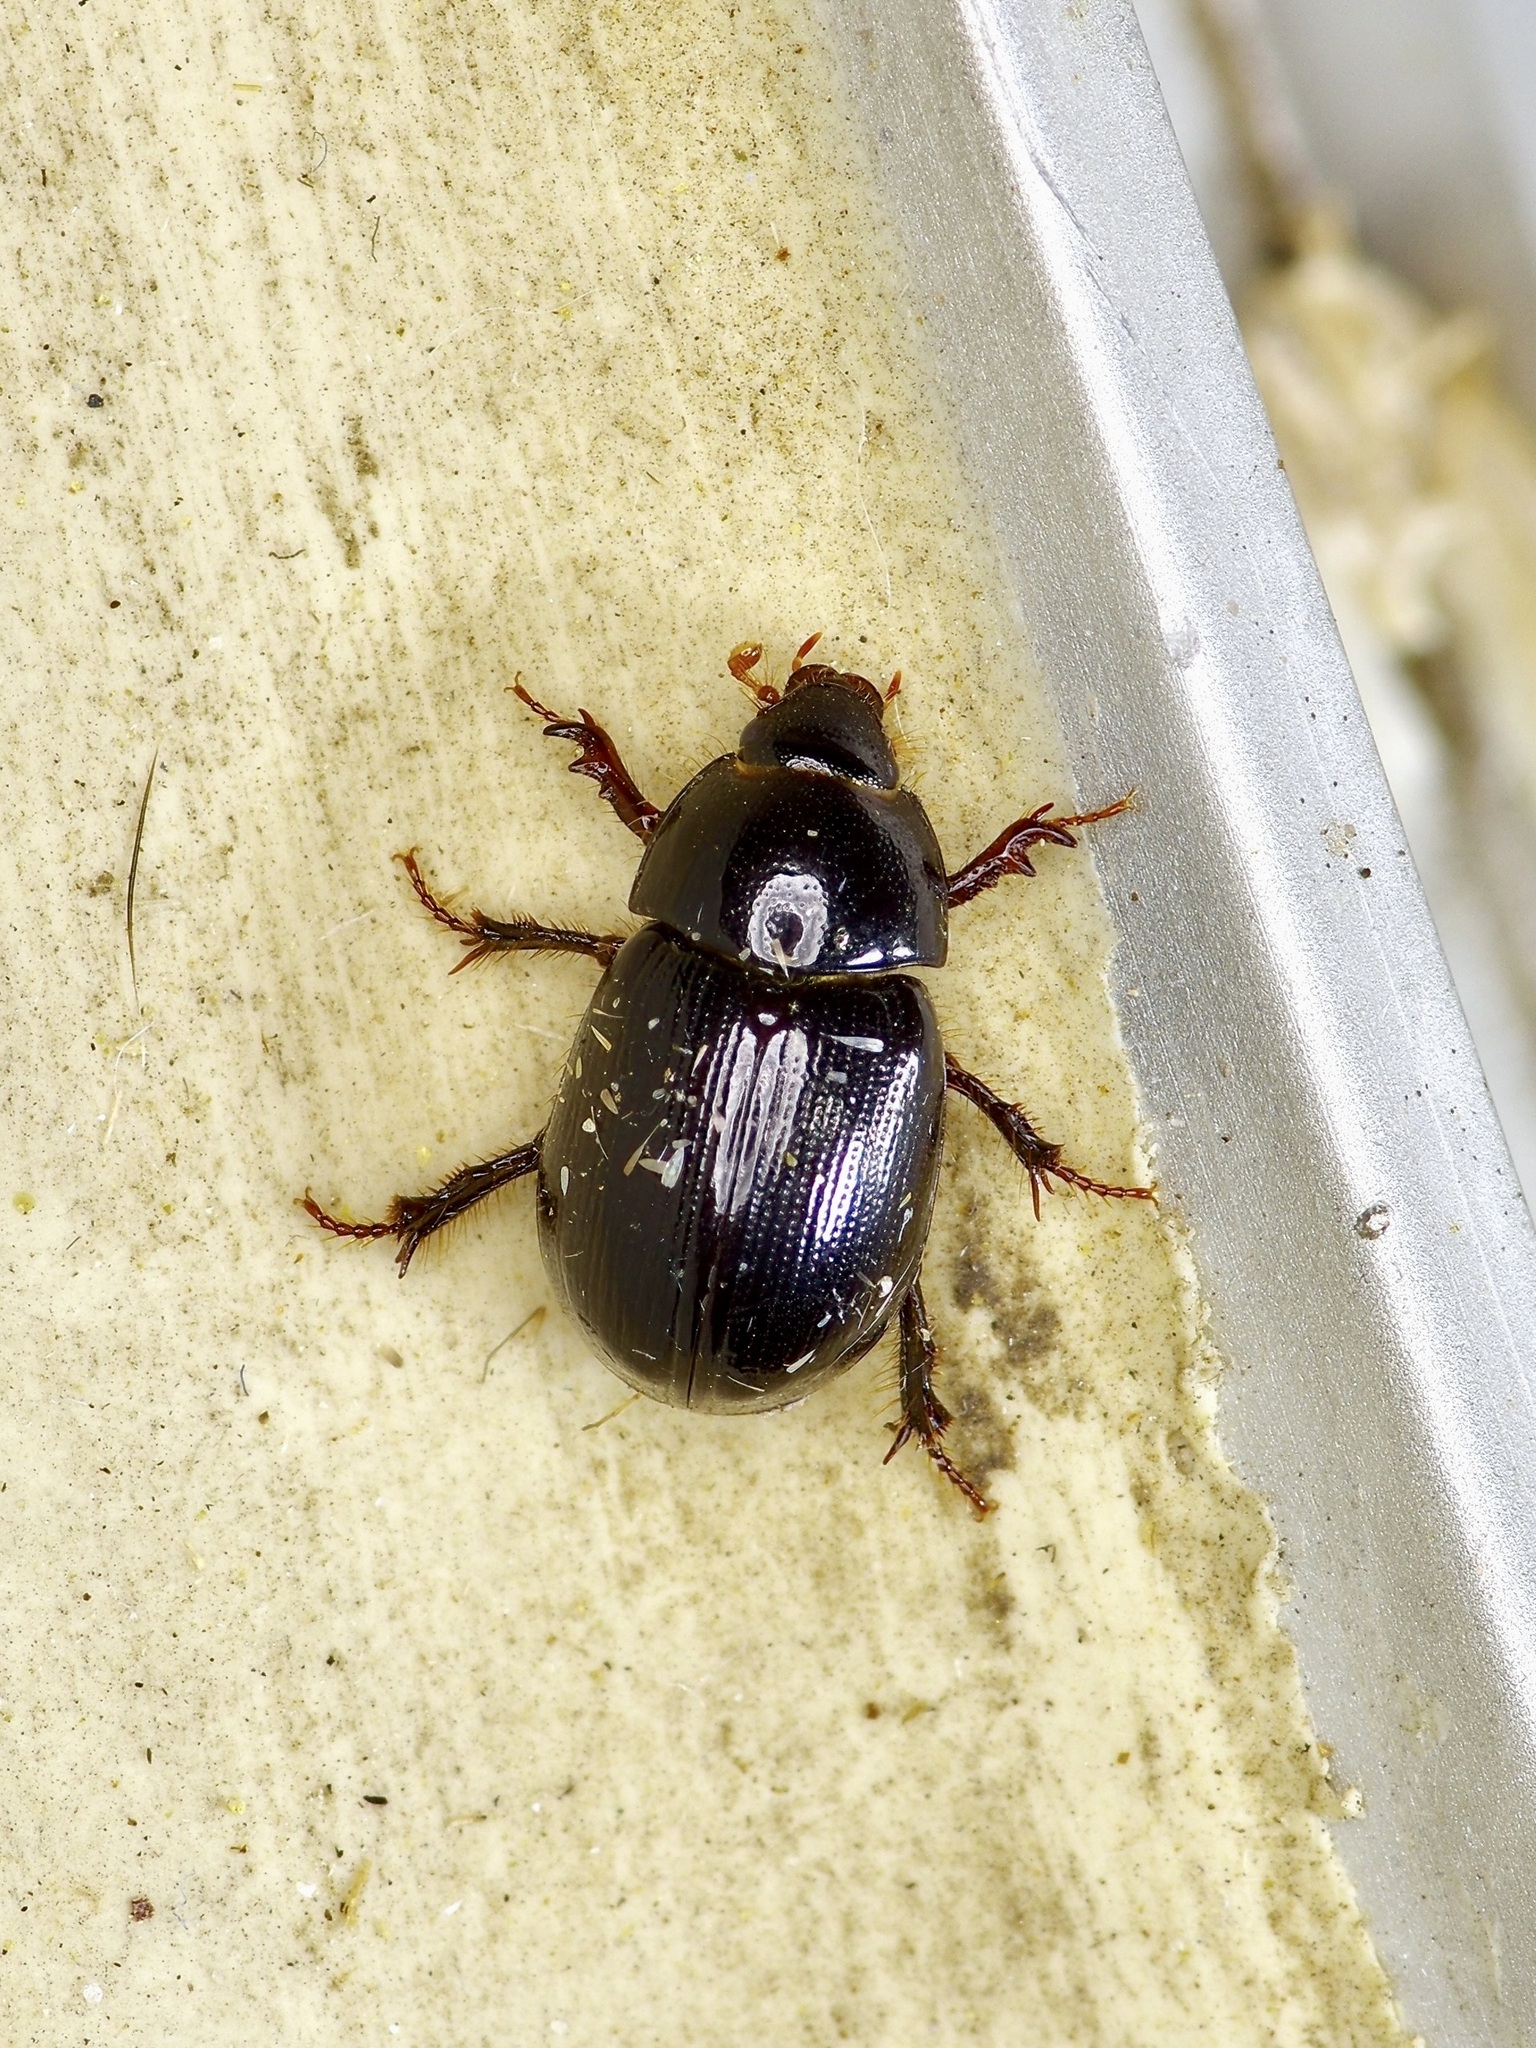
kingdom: Animalia
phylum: Arthropoda
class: Insecta
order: Coleoptera
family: Hybosoridae
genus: Hybosorus
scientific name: Hybosorus illigeri
